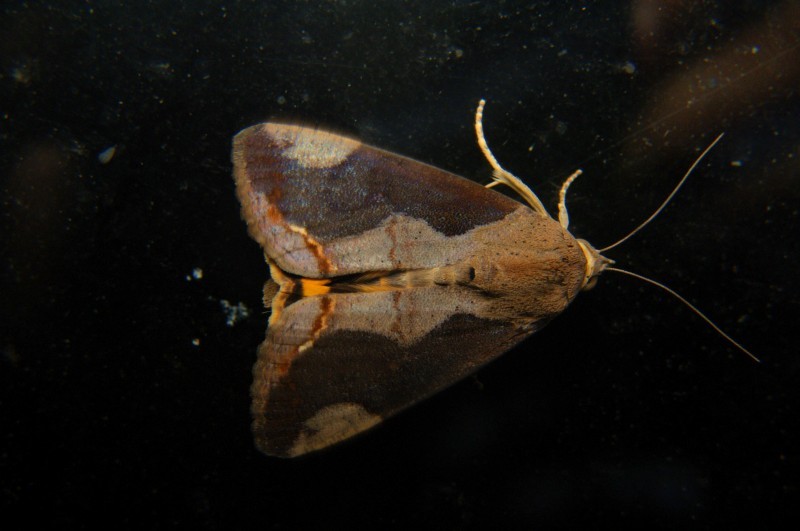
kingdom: Animalia
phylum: Arthropoda
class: Insecta
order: Lepidoptera
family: Erebidae
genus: Hypocala
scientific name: Hypocala subsatura
